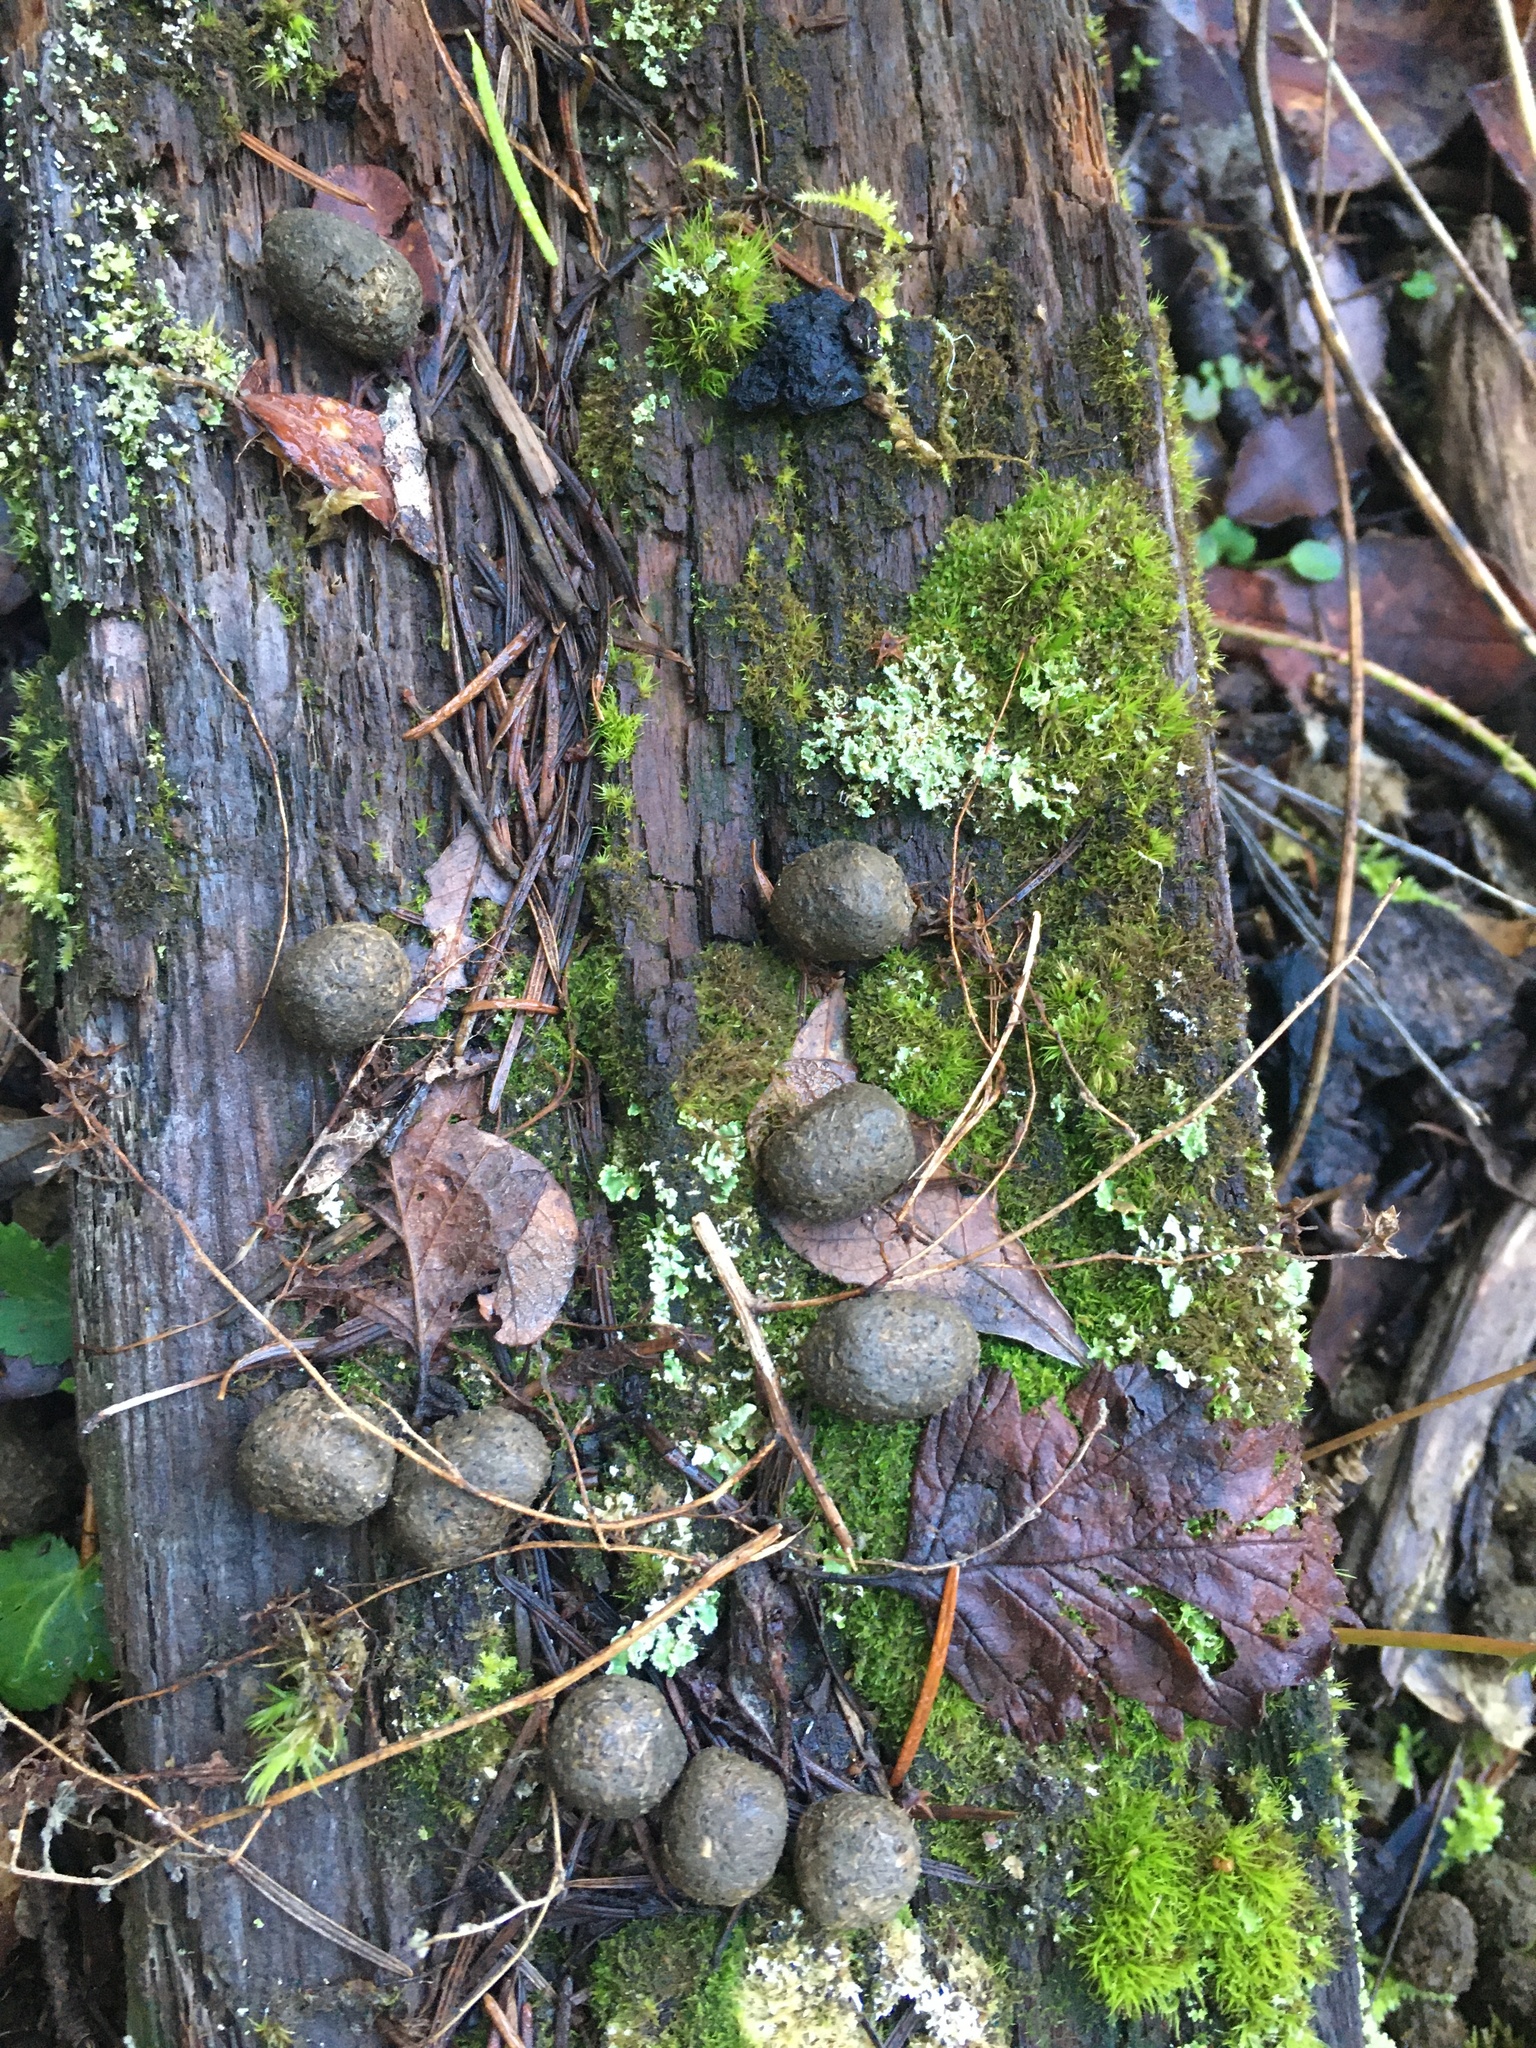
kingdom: Animalia
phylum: Chordata
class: Mammalia
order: Artiodactyla
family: Cervidae
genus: Odocoileus
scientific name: Odocoileus hemionus
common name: Mule deer
